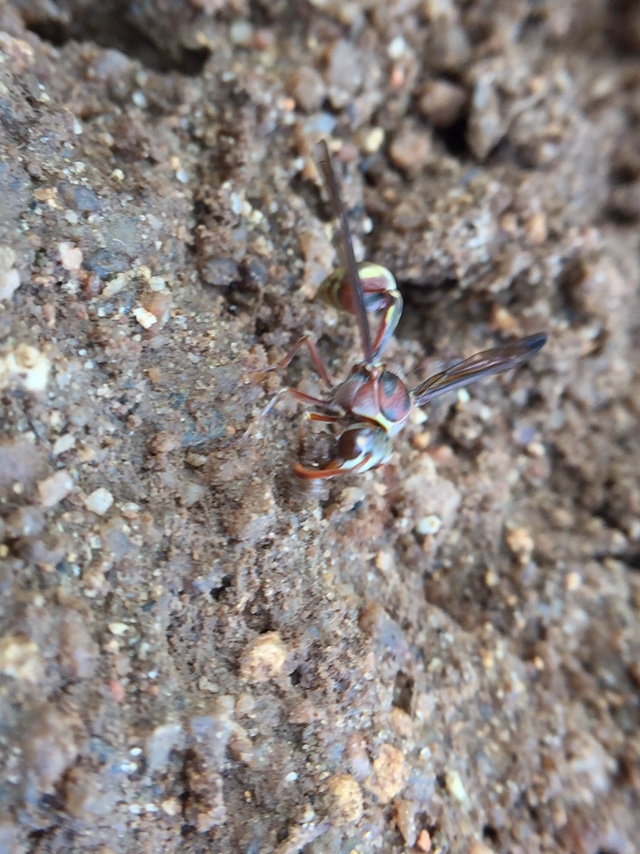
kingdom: Animalia
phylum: Arthropoda
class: Insecta
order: Hymenoptera
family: Eumenidae
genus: Oreumenoides
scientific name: Oreumenoides edwardsii
